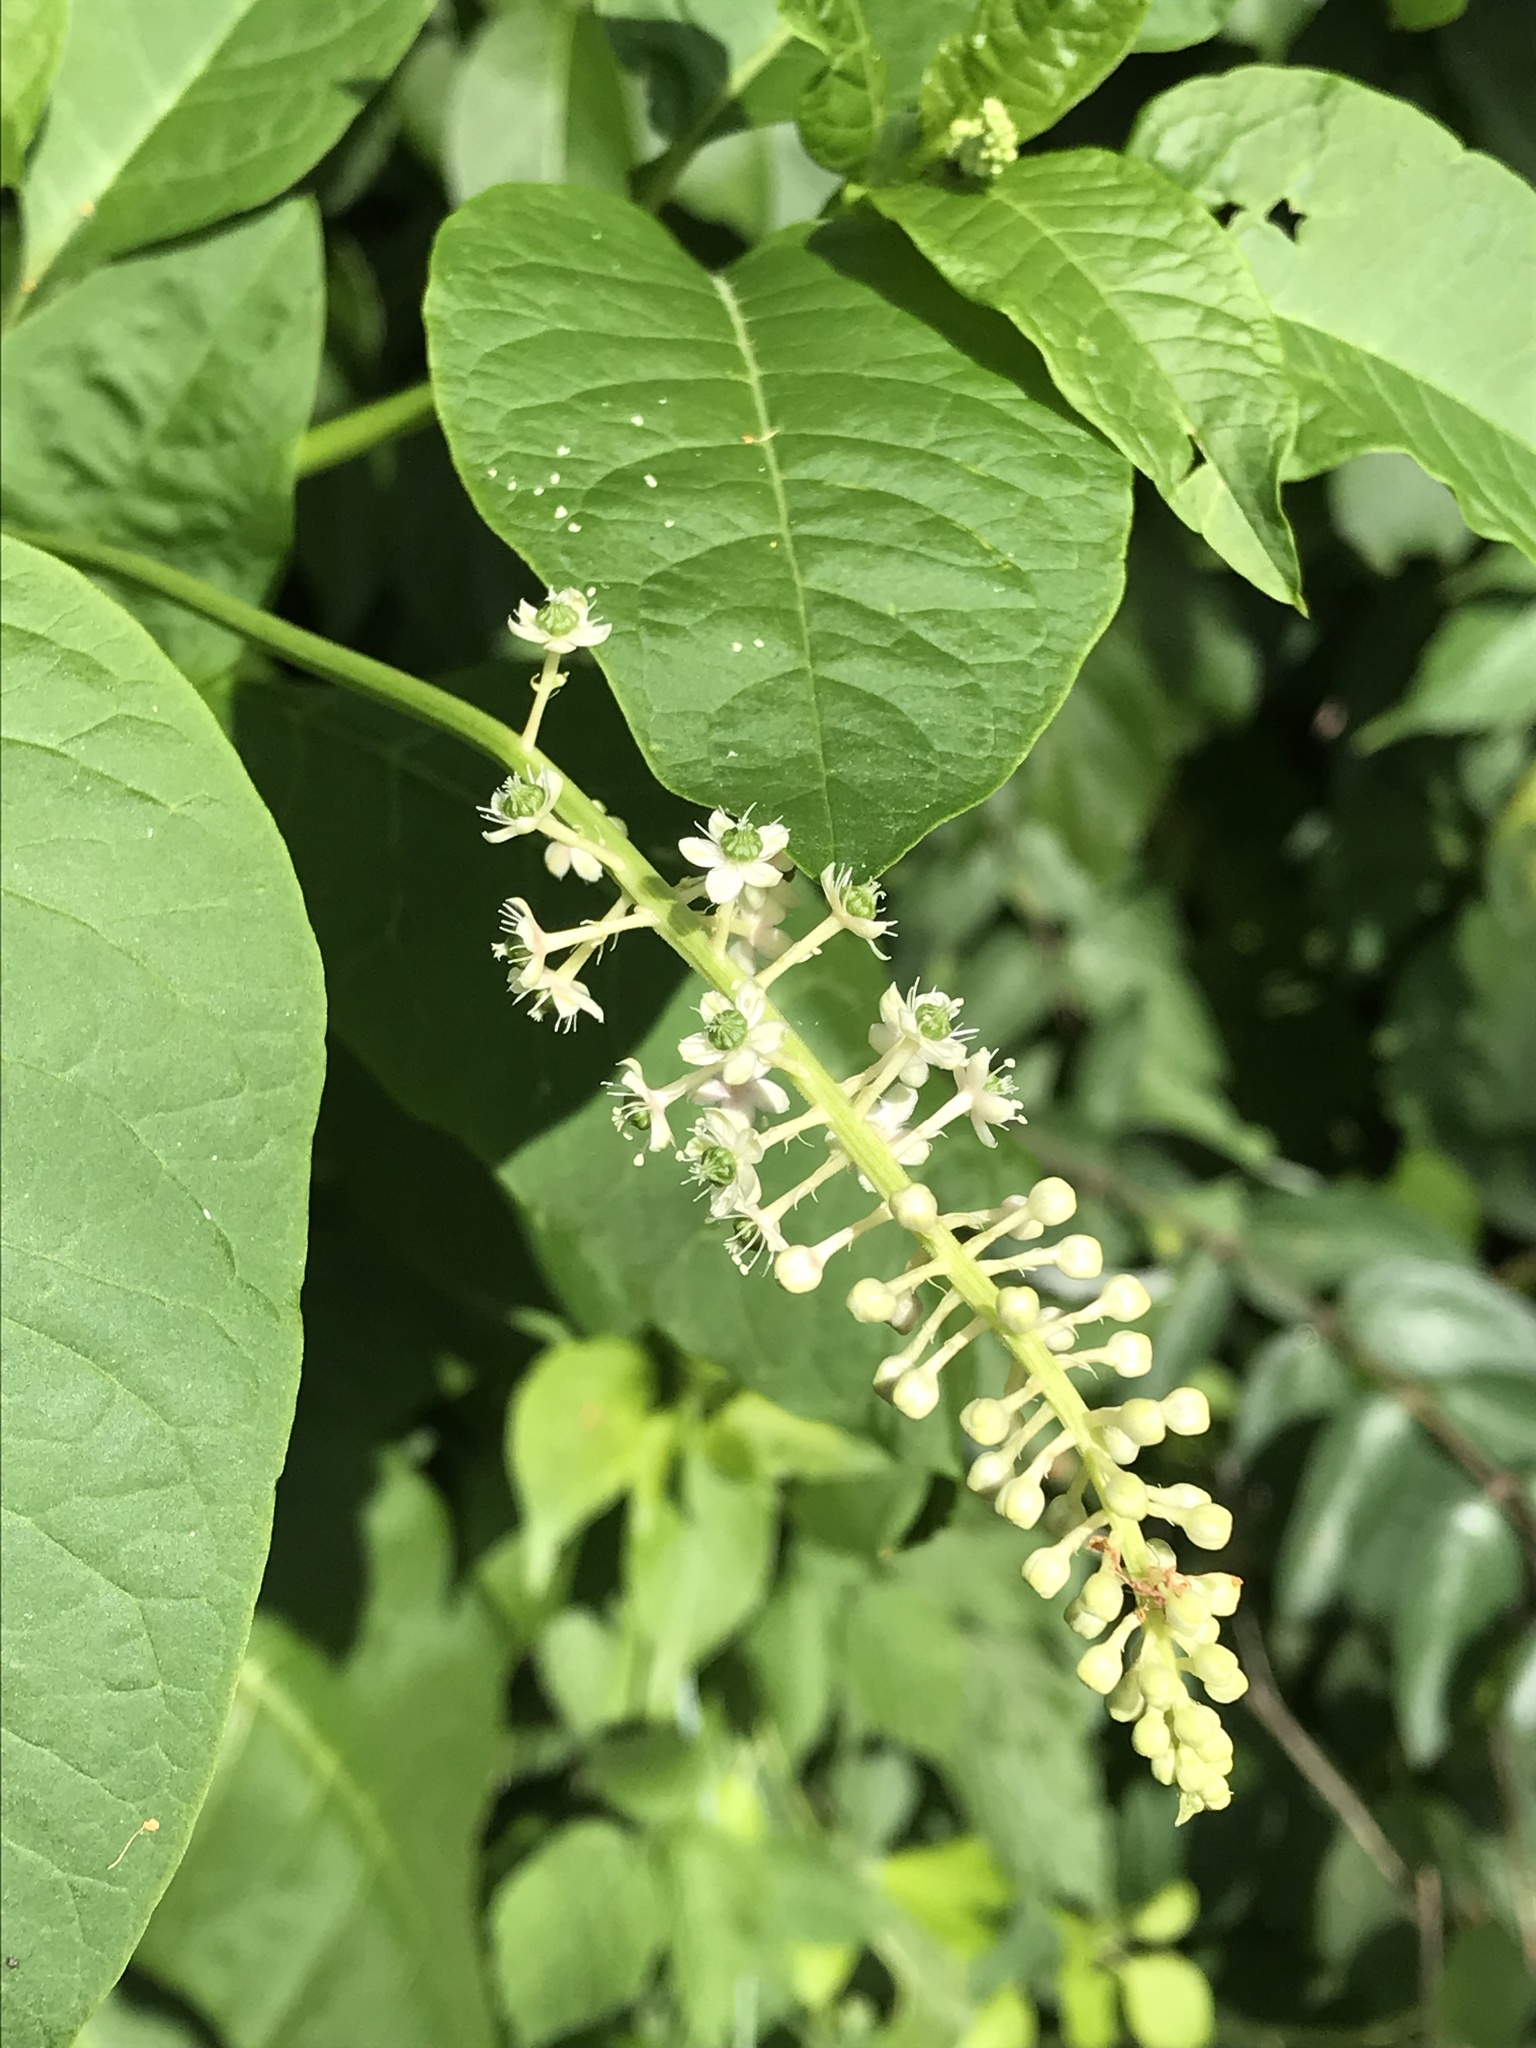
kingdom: Plantae
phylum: Tracheophyta
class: Magnoliopsida
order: Caryophyllales
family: Phytolaccaceae
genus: Phytolacca
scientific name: Phytolacca americana
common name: American pokeweed
